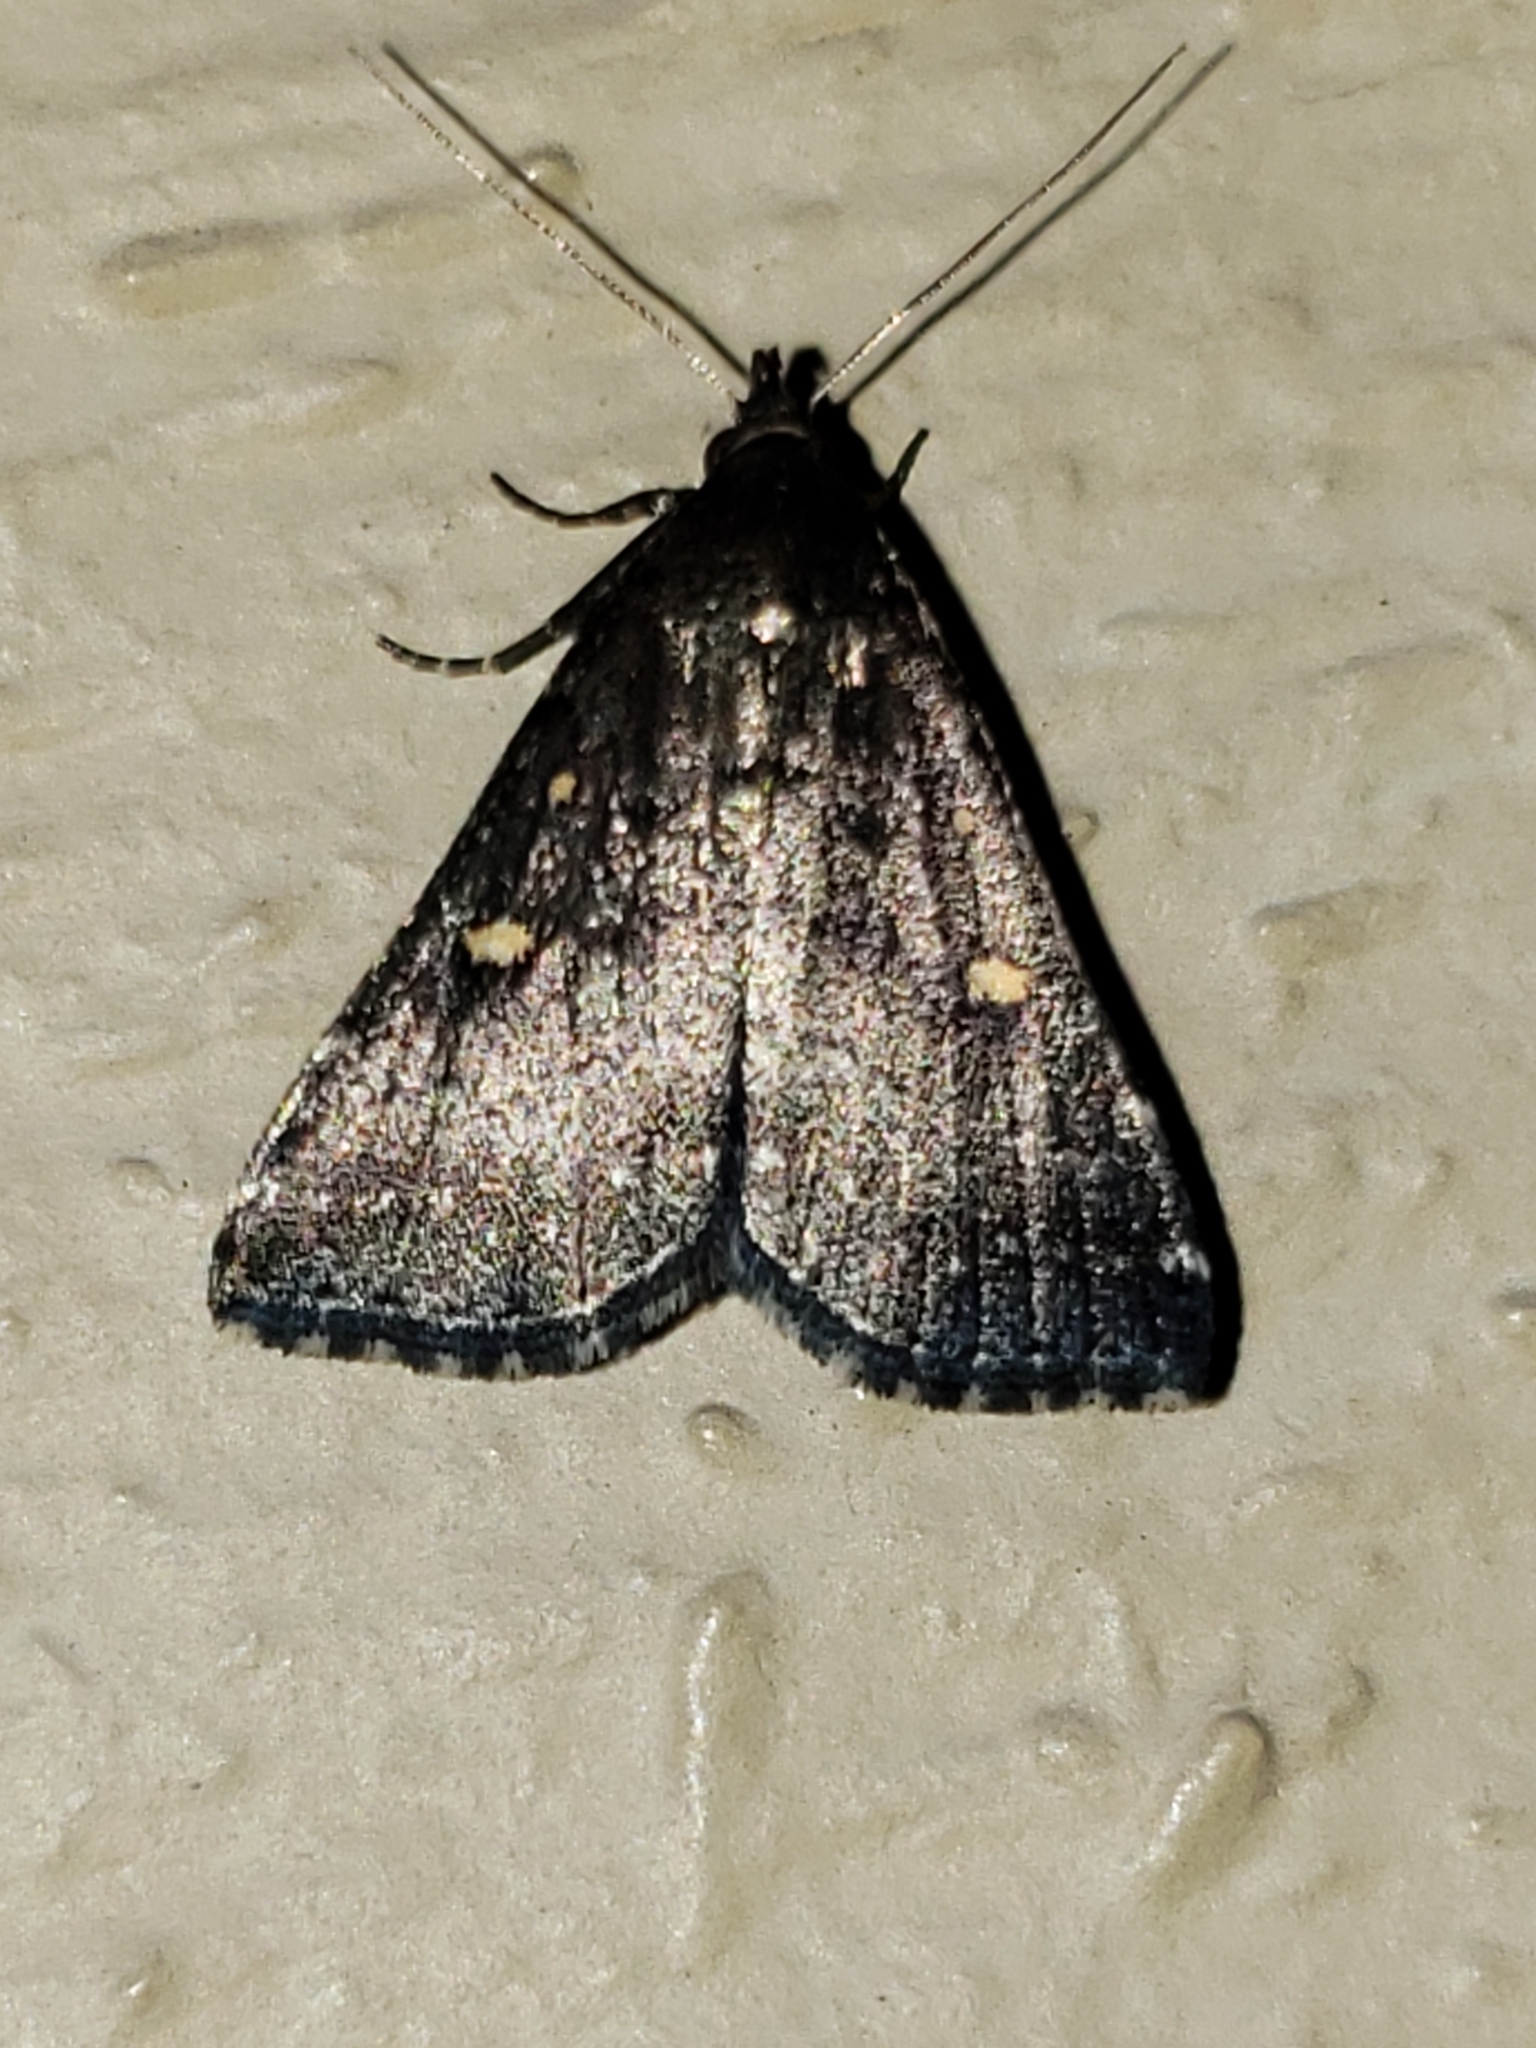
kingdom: Animalia
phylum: Arthropoda
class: Insecta
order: Lepidoptera
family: Erebidae
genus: Tetanolita
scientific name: Tetanolita mynesalis
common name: Smoky tetanolita moth
